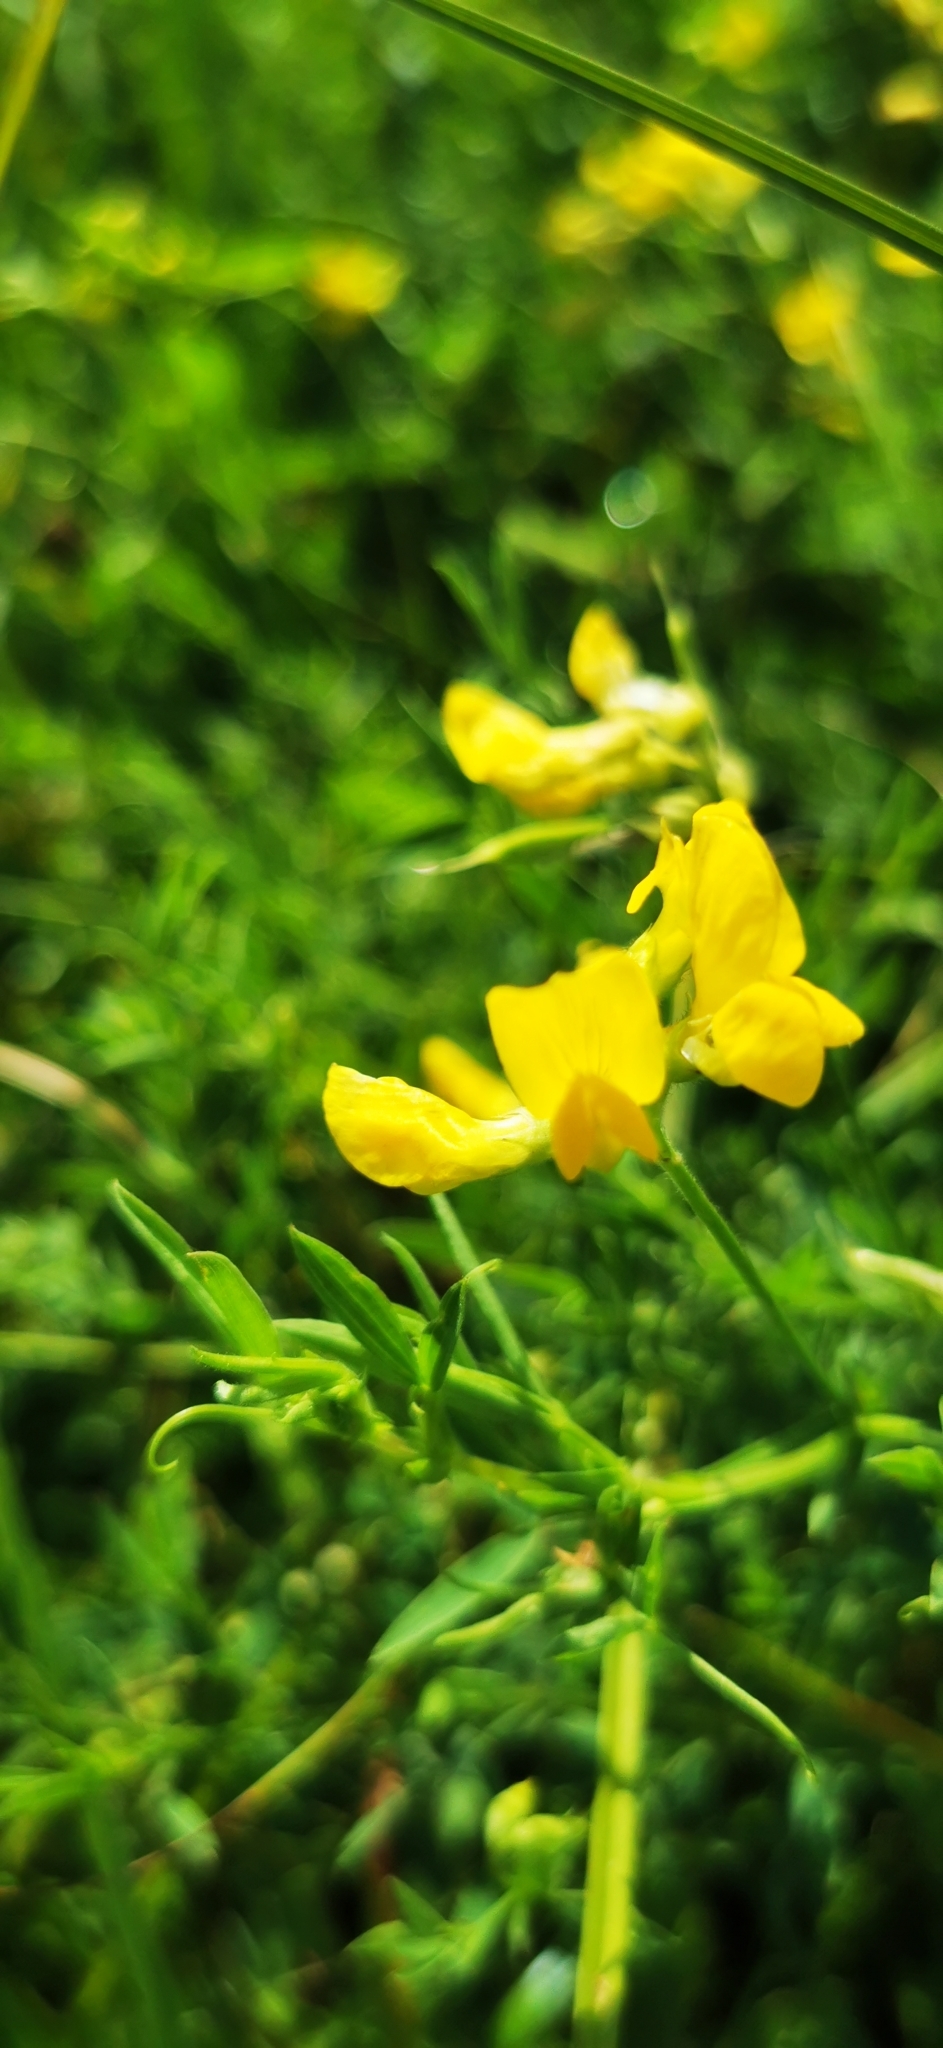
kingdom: Plantae
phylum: Tracheophyta
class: Magnoliopsida
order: Fabales
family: Fabaceae
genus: Lathyrus
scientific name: Lathyrus pratensis
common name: Meadow vetchling
